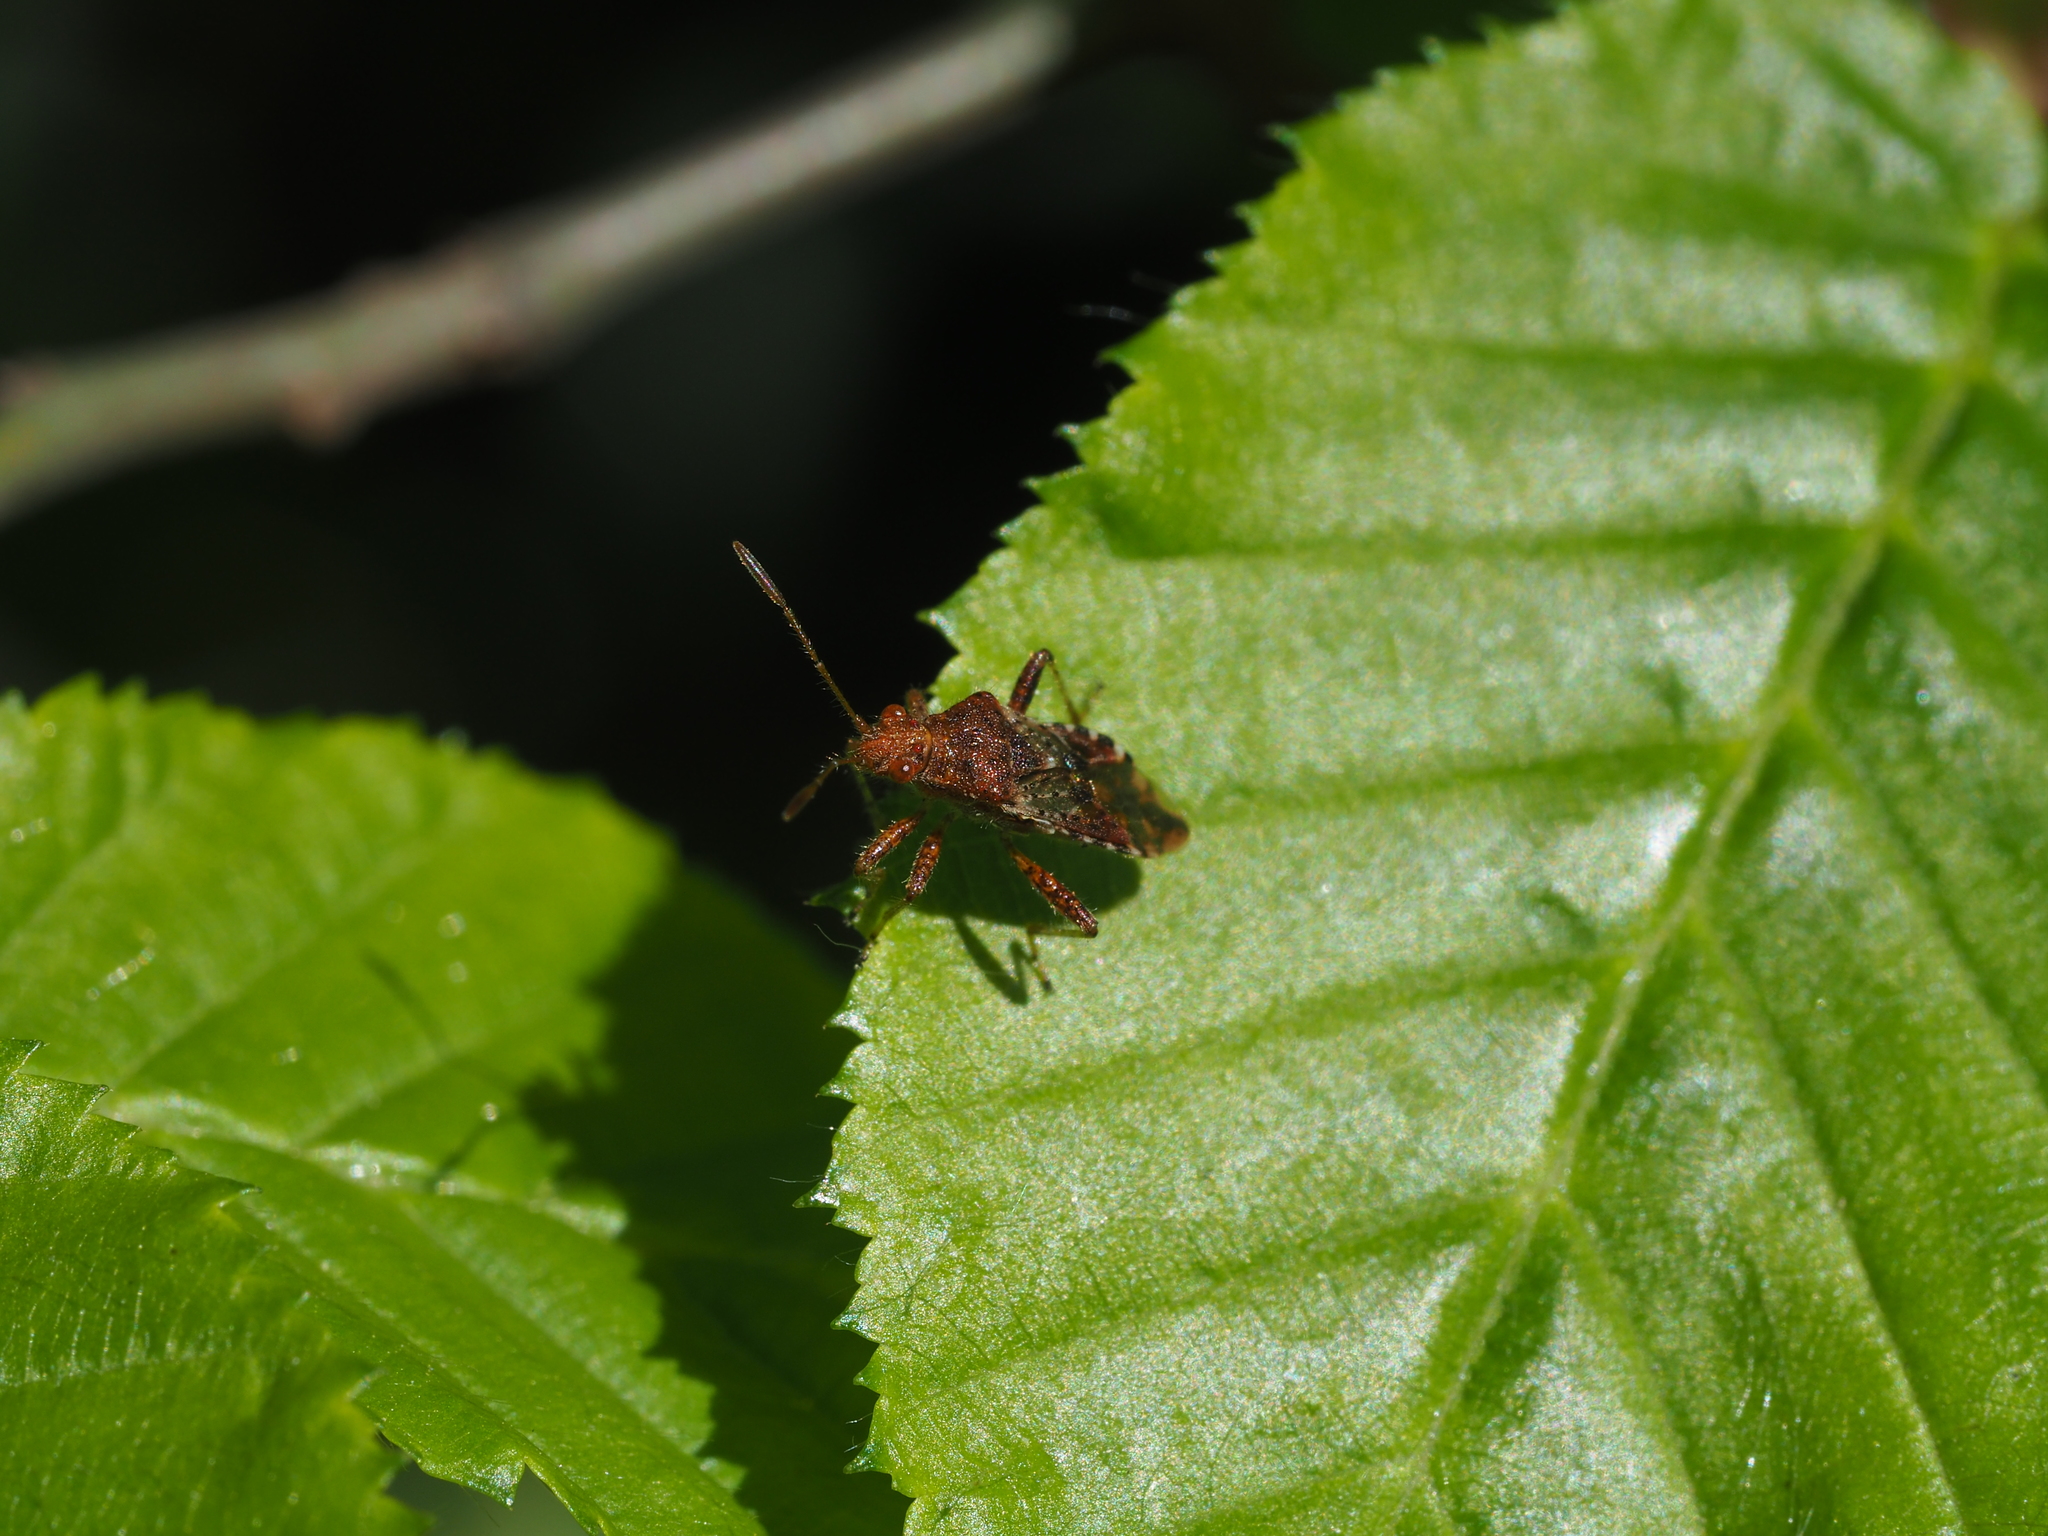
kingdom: Animalia
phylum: Arthropoda
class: Insecta
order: Hemiptera
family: Rhopalidae
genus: Rhopalus
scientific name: Rhopalus subrufus
